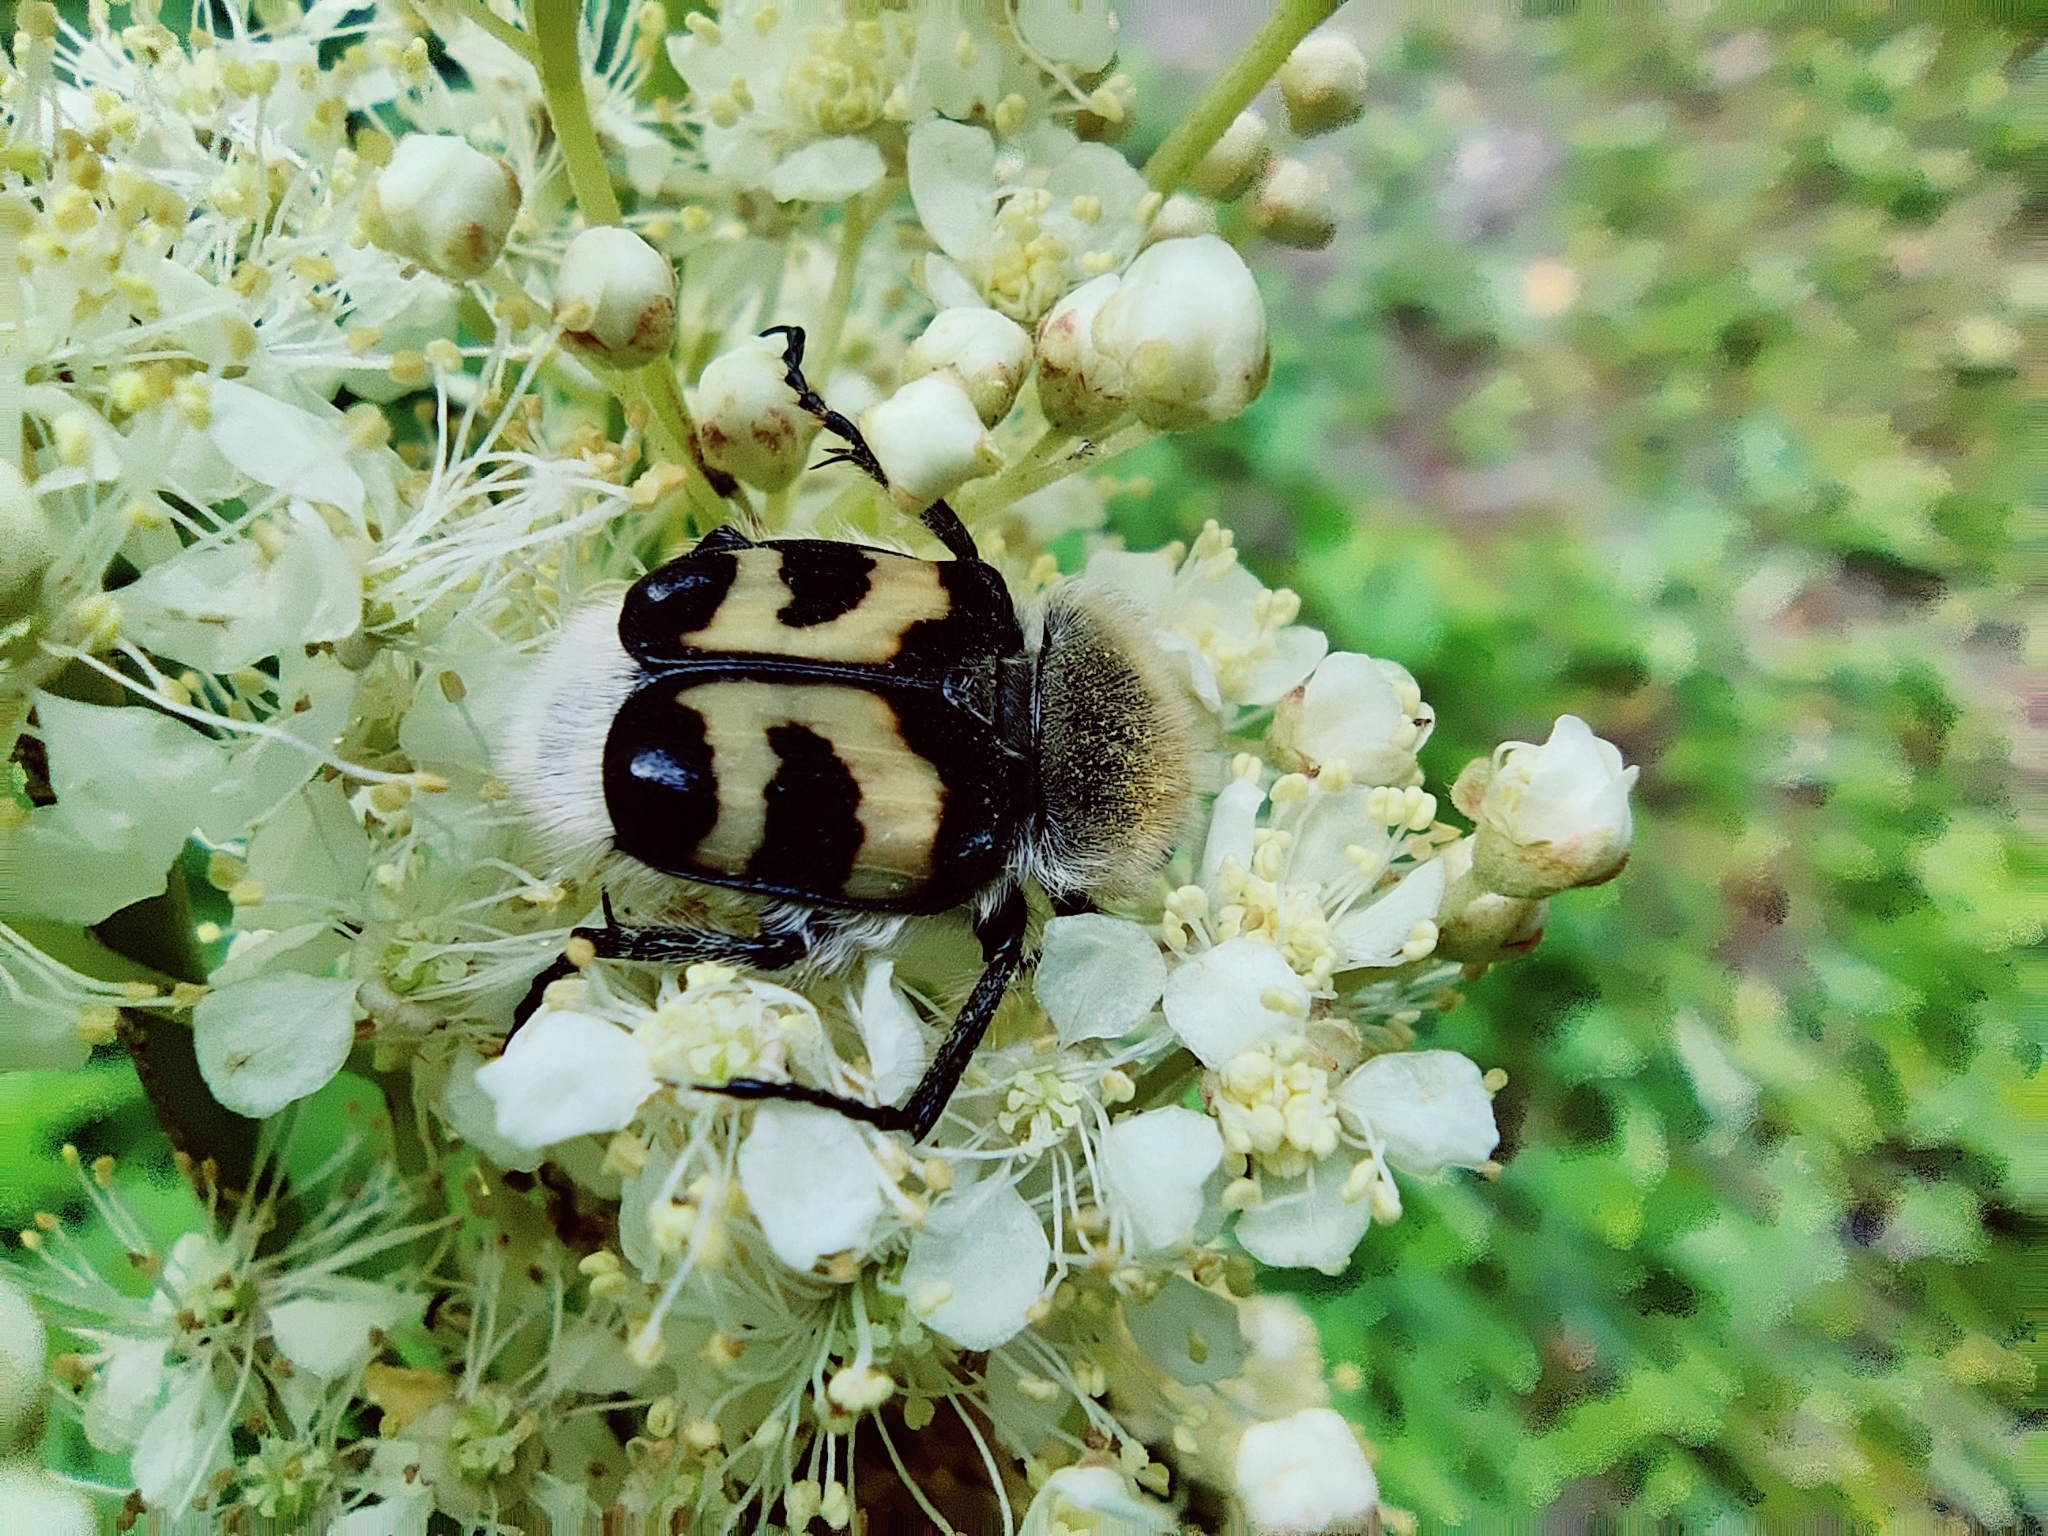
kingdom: Animalia
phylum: Arthropoda
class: Insecta
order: Coleoptera
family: Scarabaeidae
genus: Trichius
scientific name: Trichius fasciatus
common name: Bee beetle
